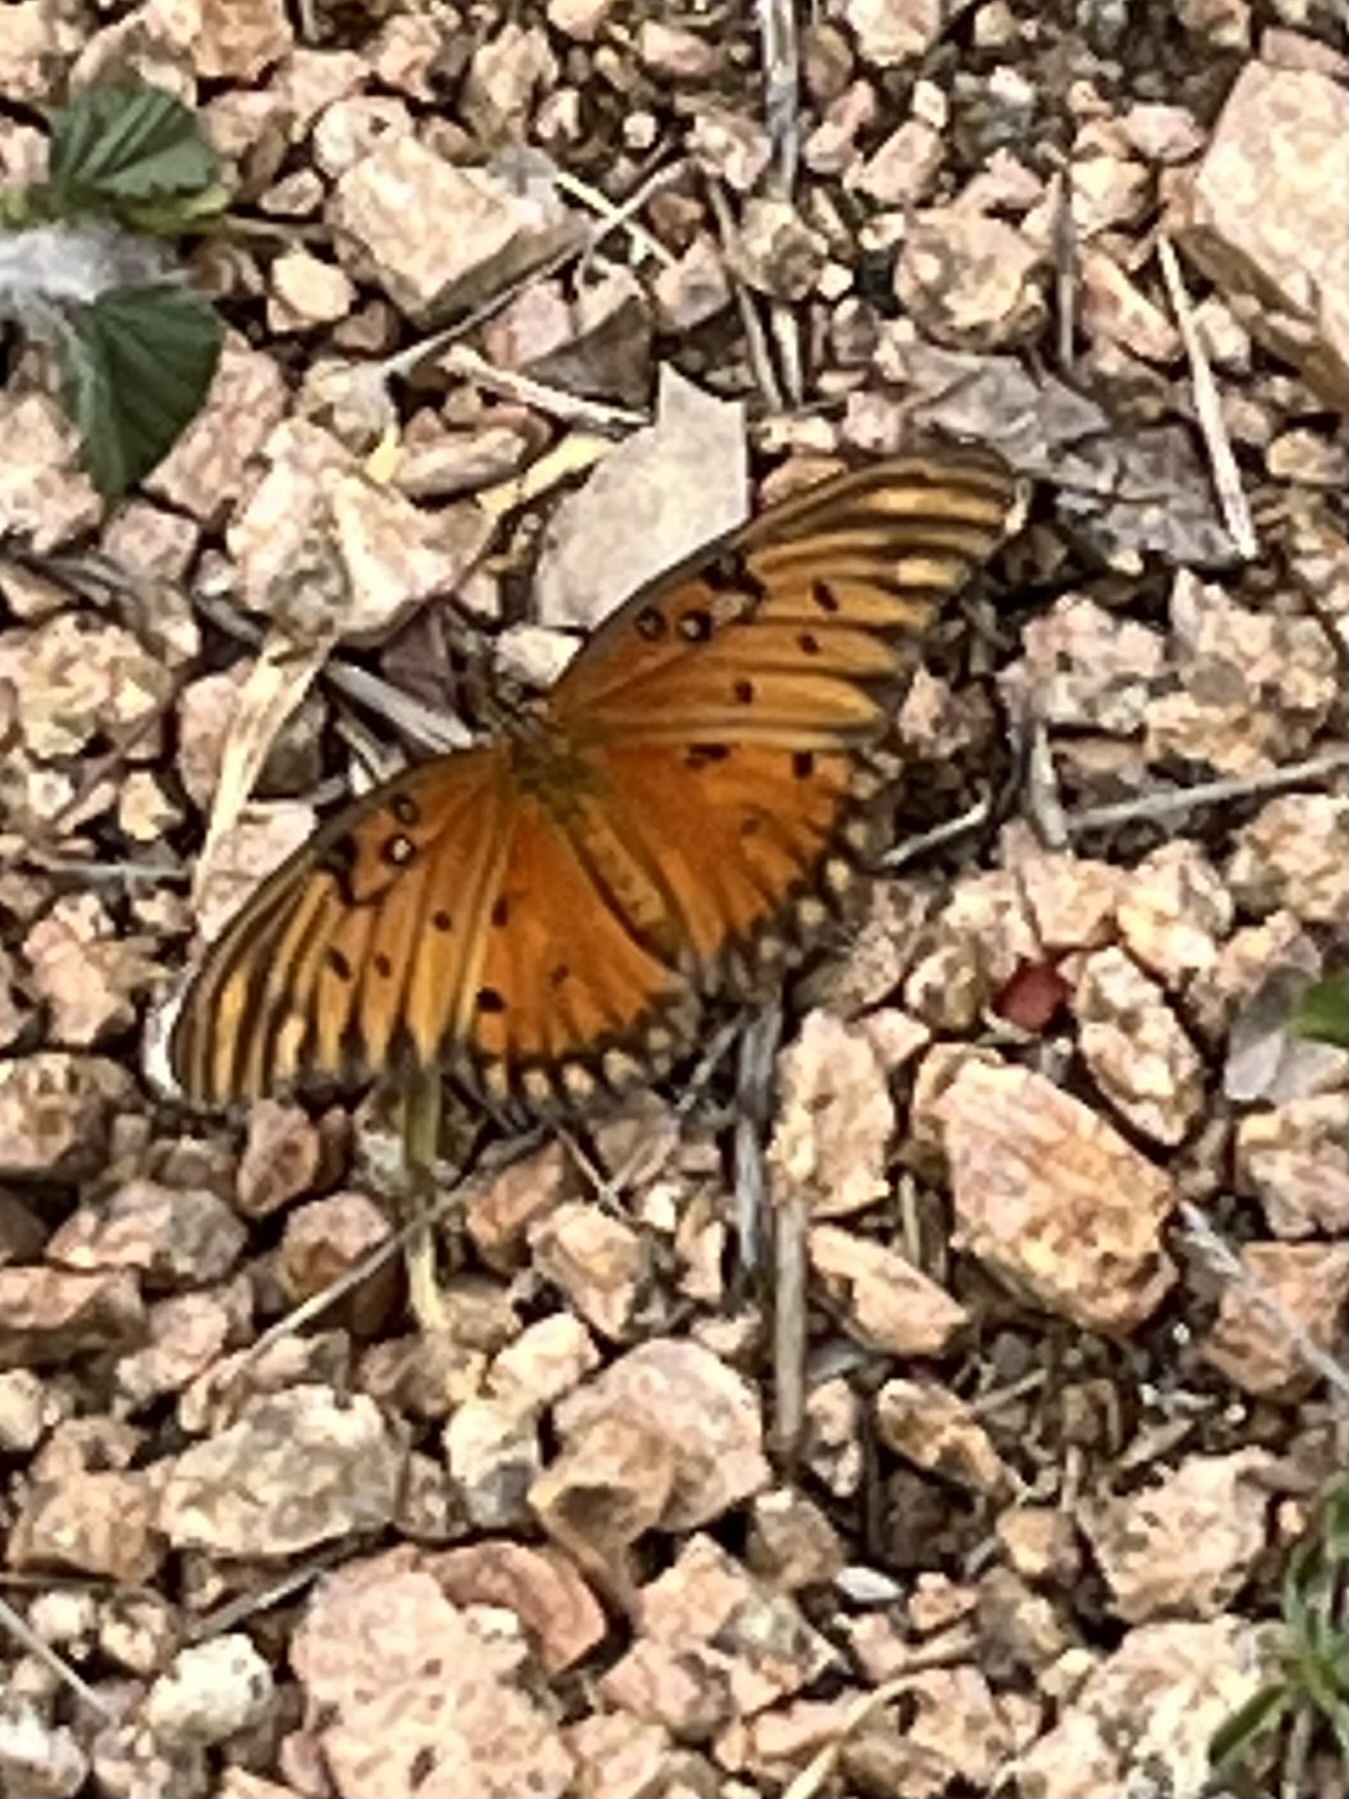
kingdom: Animalia
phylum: Arthropoda
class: Insecta
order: Lepidoptera
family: Nymphalidae
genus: Dione
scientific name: Dione vanillae
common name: Gulf fritillary
